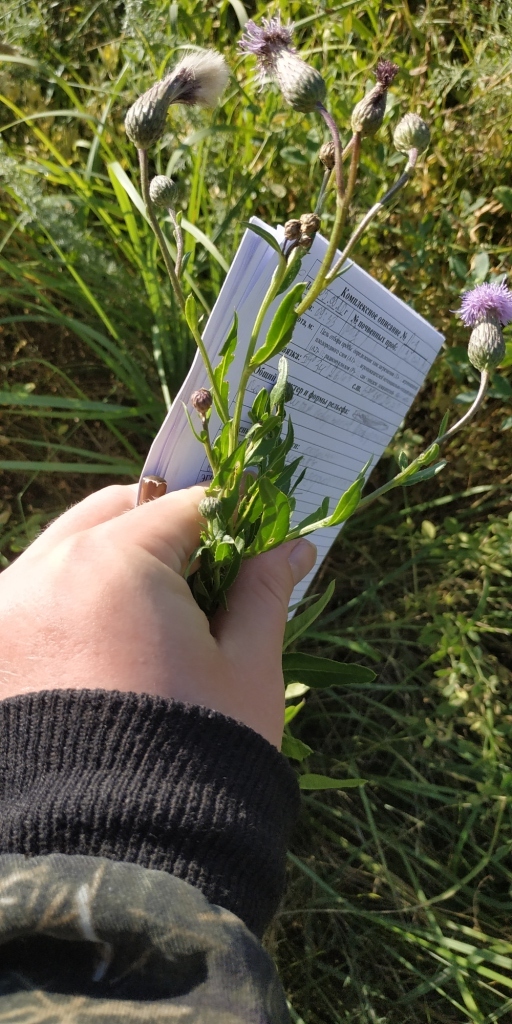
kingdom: Plantae
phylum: Tracheophyta
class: Magnoliopsida
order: Asterales
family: Asteraceae
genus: Cirsium
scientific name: Cirsium arvense
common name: Creeping thistle
